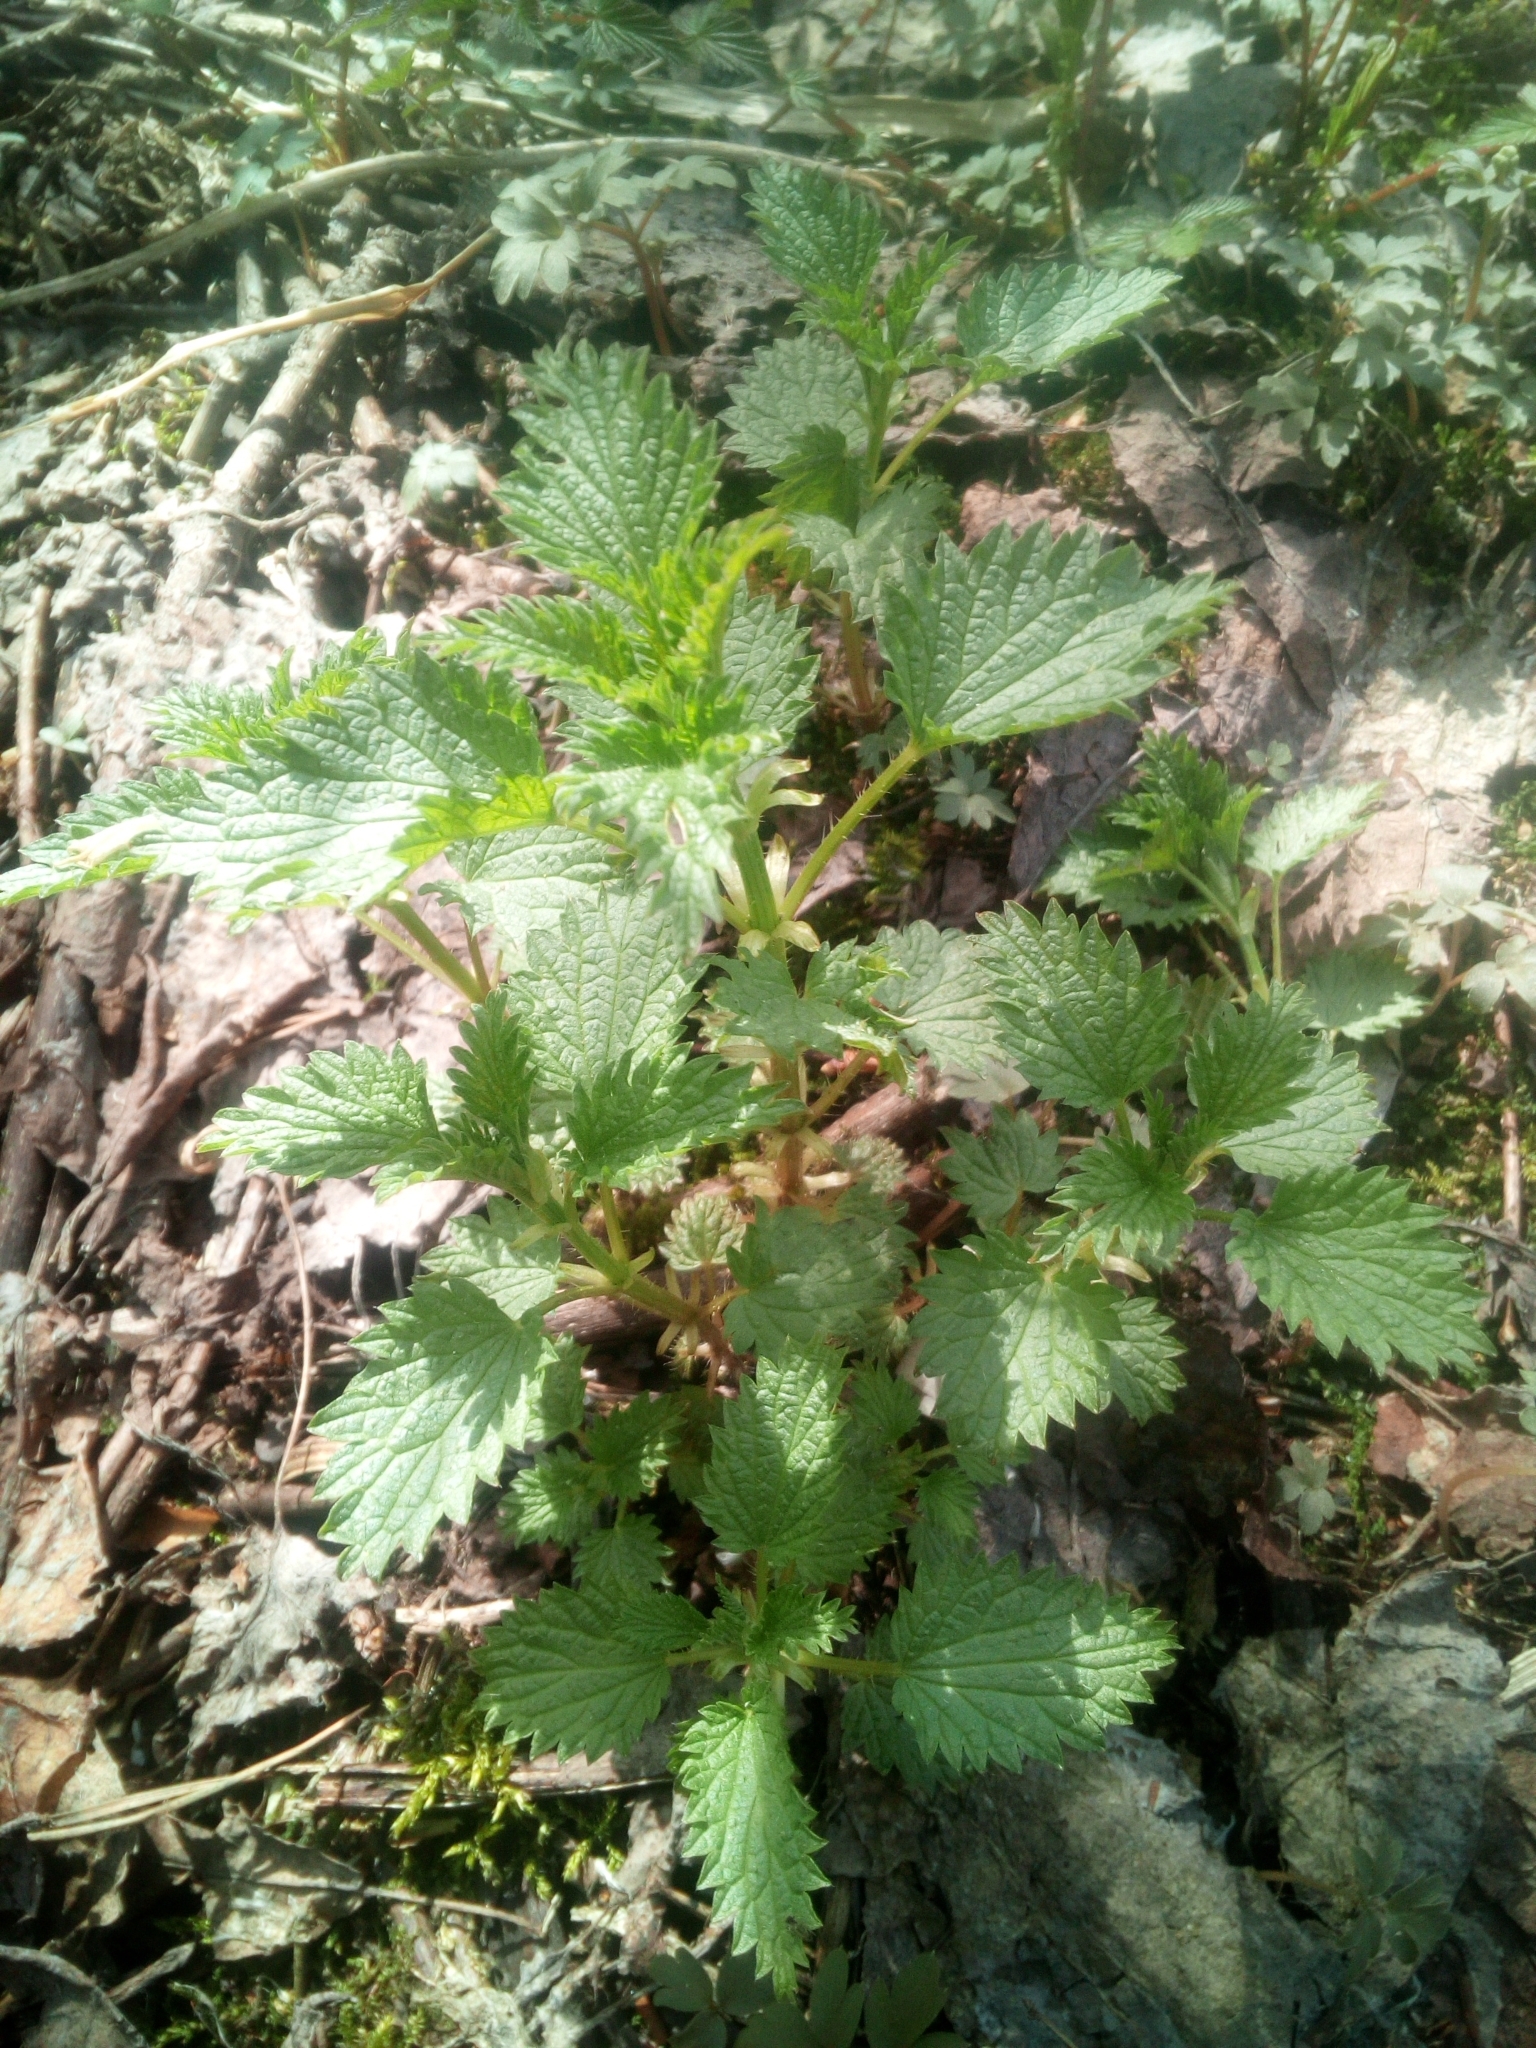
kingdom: Plantae
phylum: Tracheophyta
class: Magnoliopsida
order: Rosales
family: Urticaceae
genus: Urtica
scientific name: Urtica dioica
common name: Common nettle
